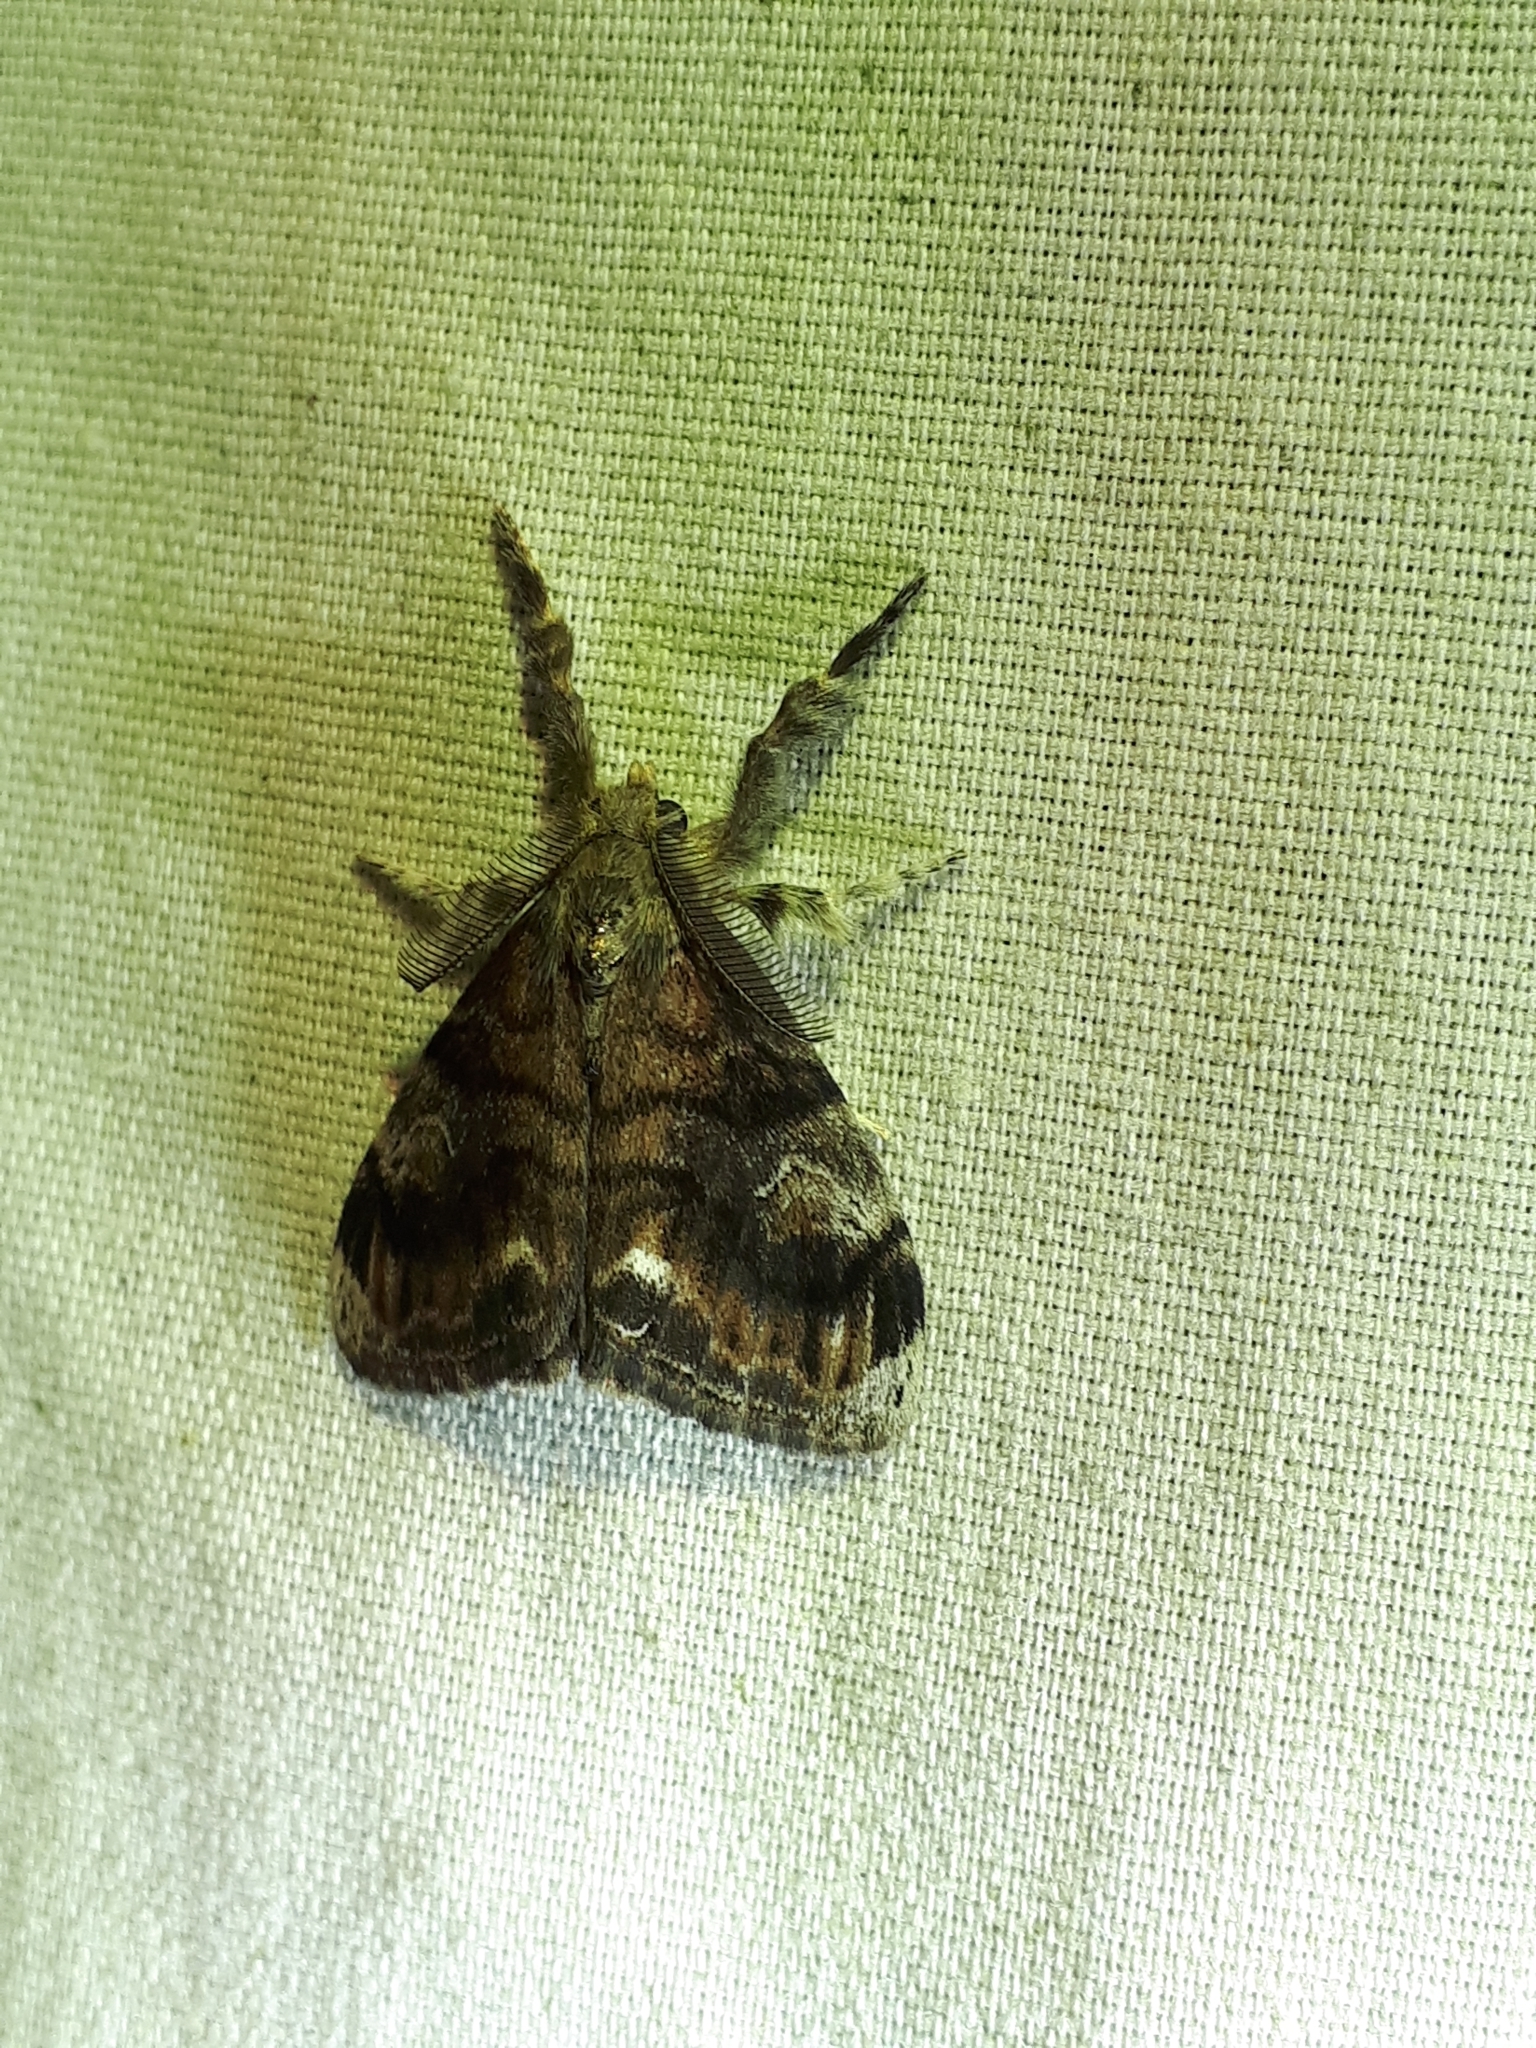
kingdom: Animalia
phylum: Arthropoda
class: Insecta
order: Lepidoptera
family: Erebidae
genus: Orgyia
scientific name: Orgyia definita
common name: Definite tussock moth
